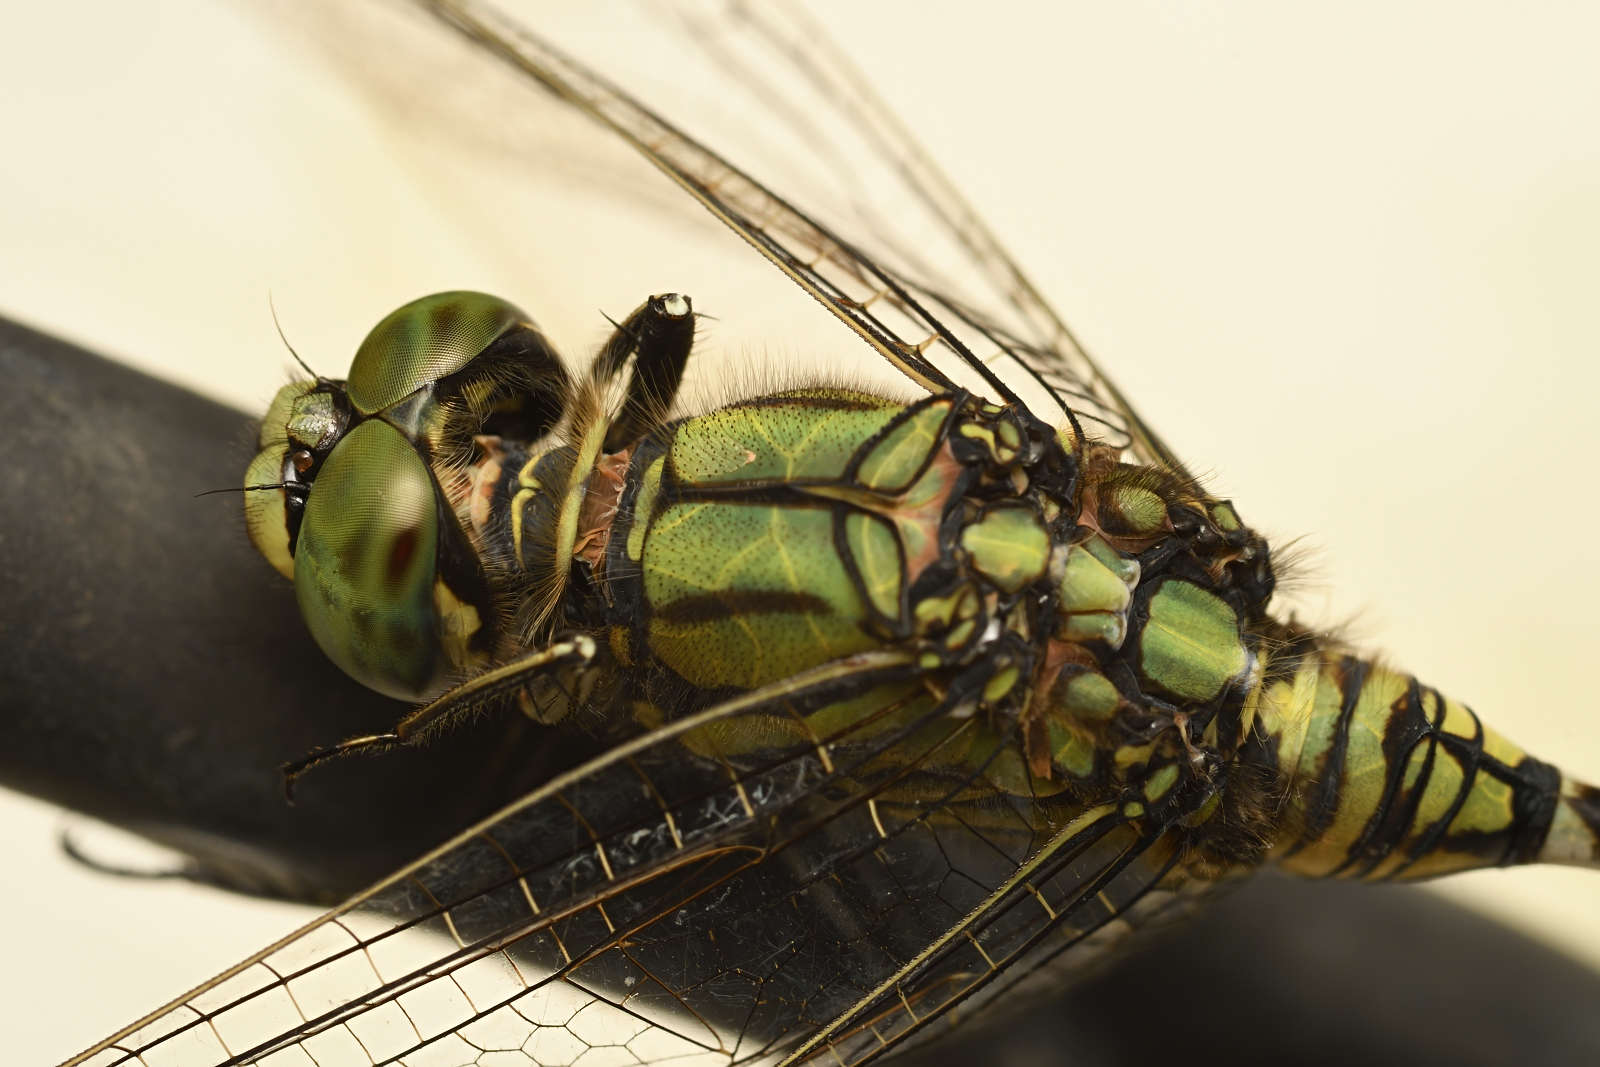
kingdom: Animalia
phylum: Arthropoda
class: Insecta
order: Odonata
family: Libellulidae
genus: Orthetrum
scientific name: Orthetrum sabina
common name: Slender skimmer
